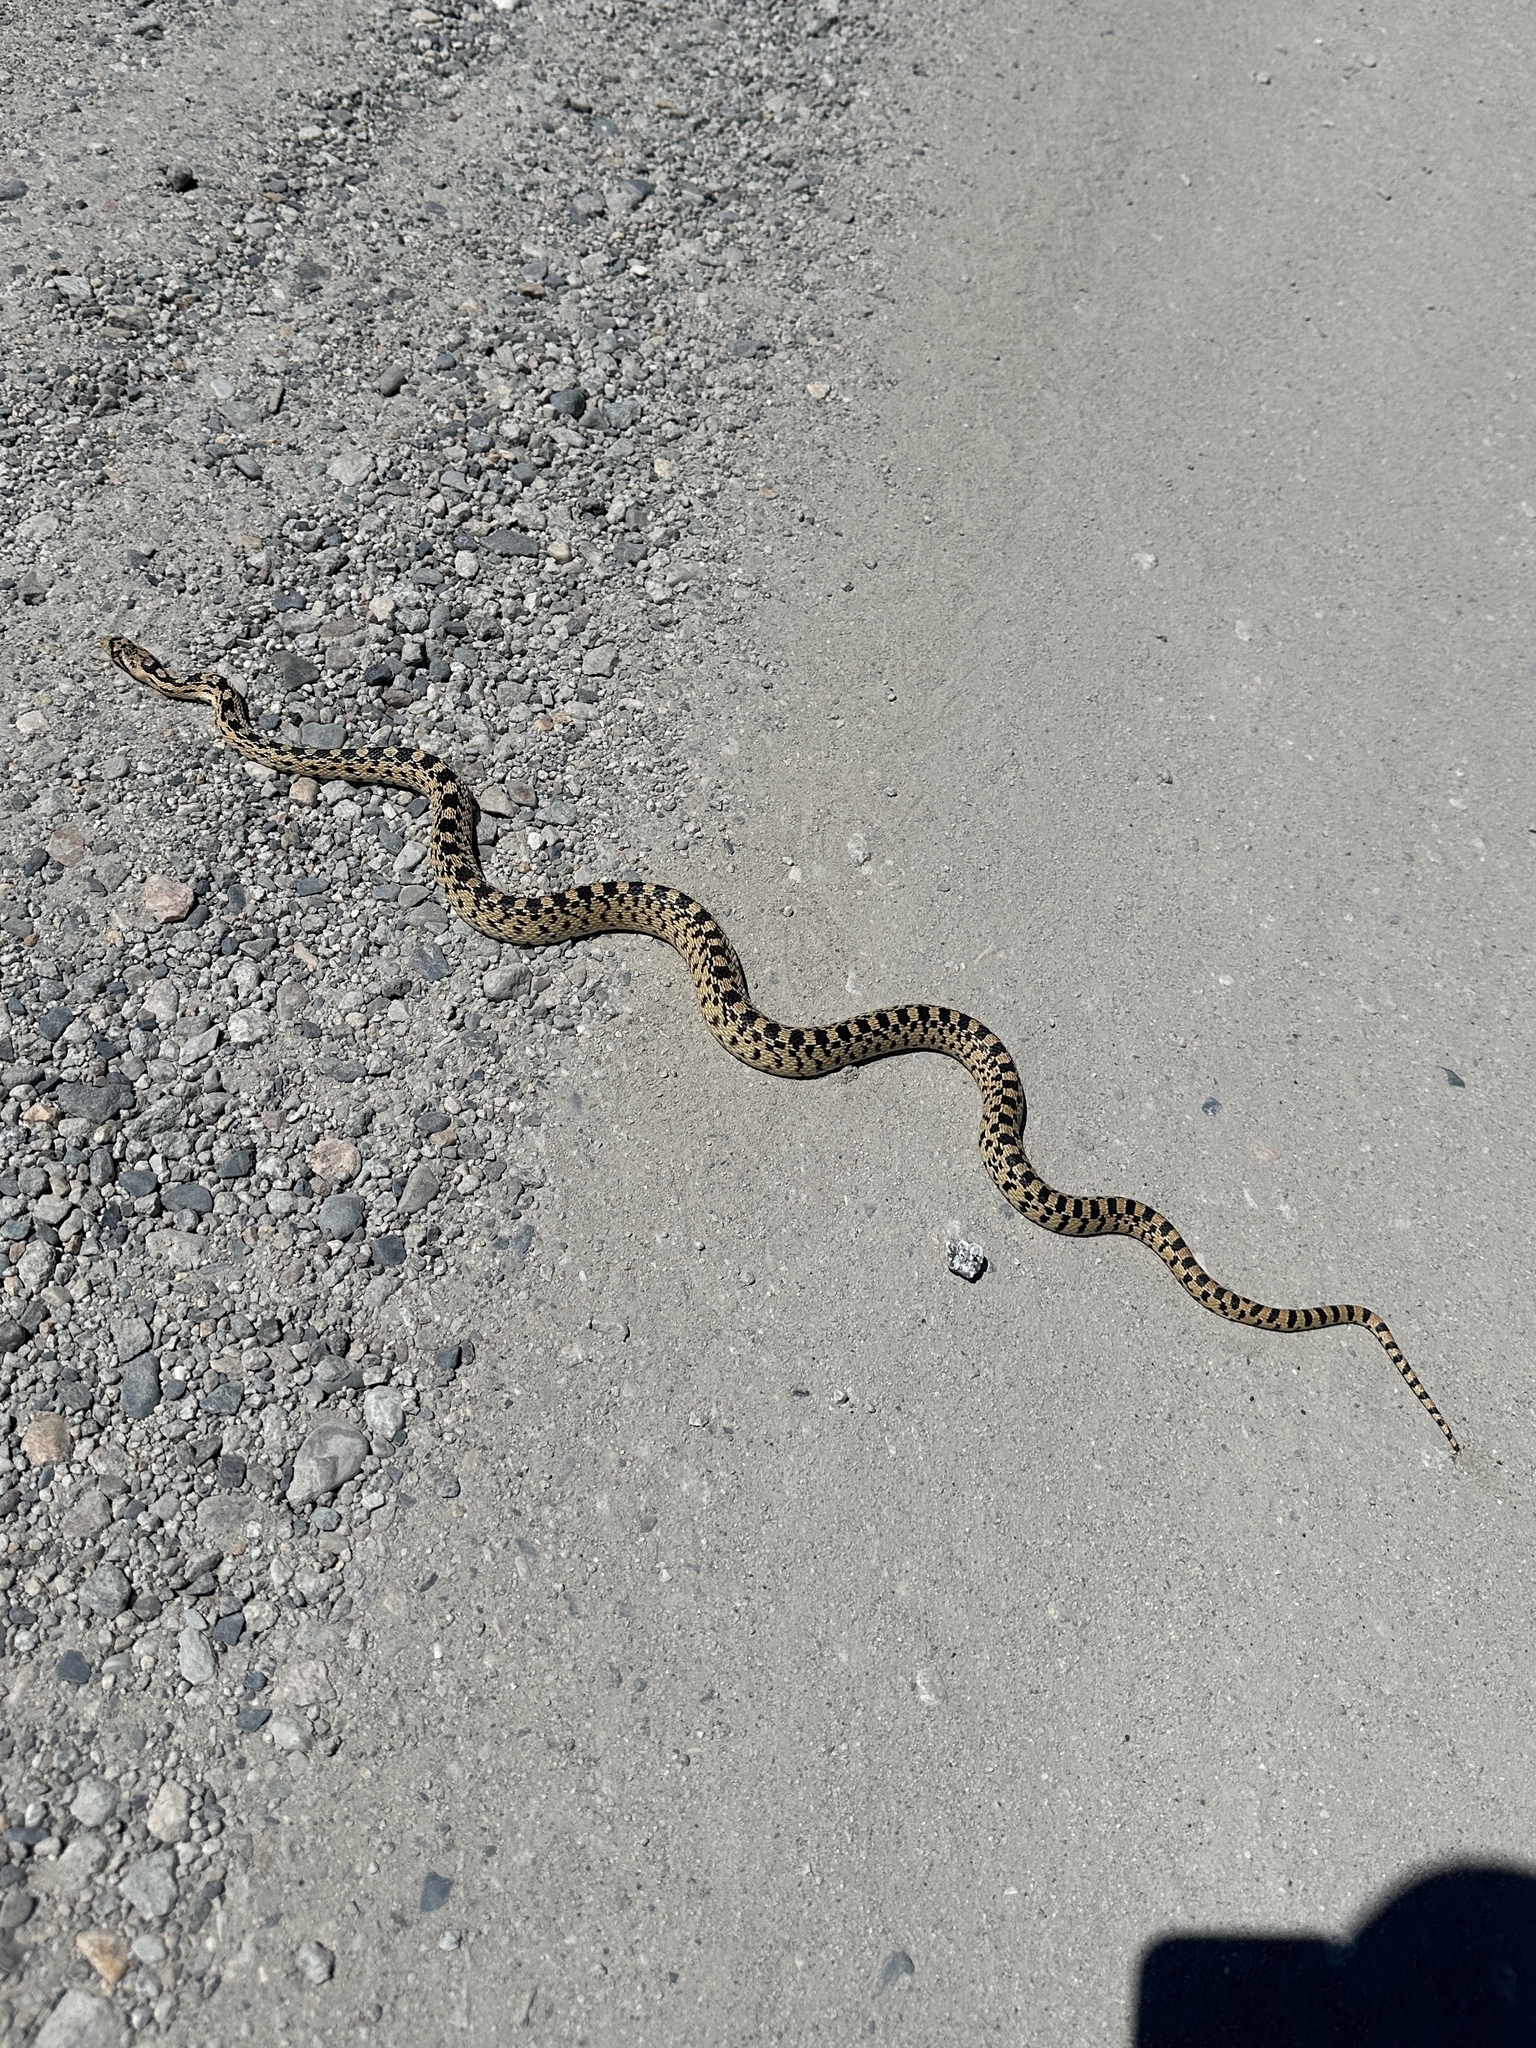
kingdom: Animalia
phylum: Chordata
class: Squamata
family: Colubridae
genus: Pituophis
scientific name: Pituophis catenifer
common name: Gopher snake
